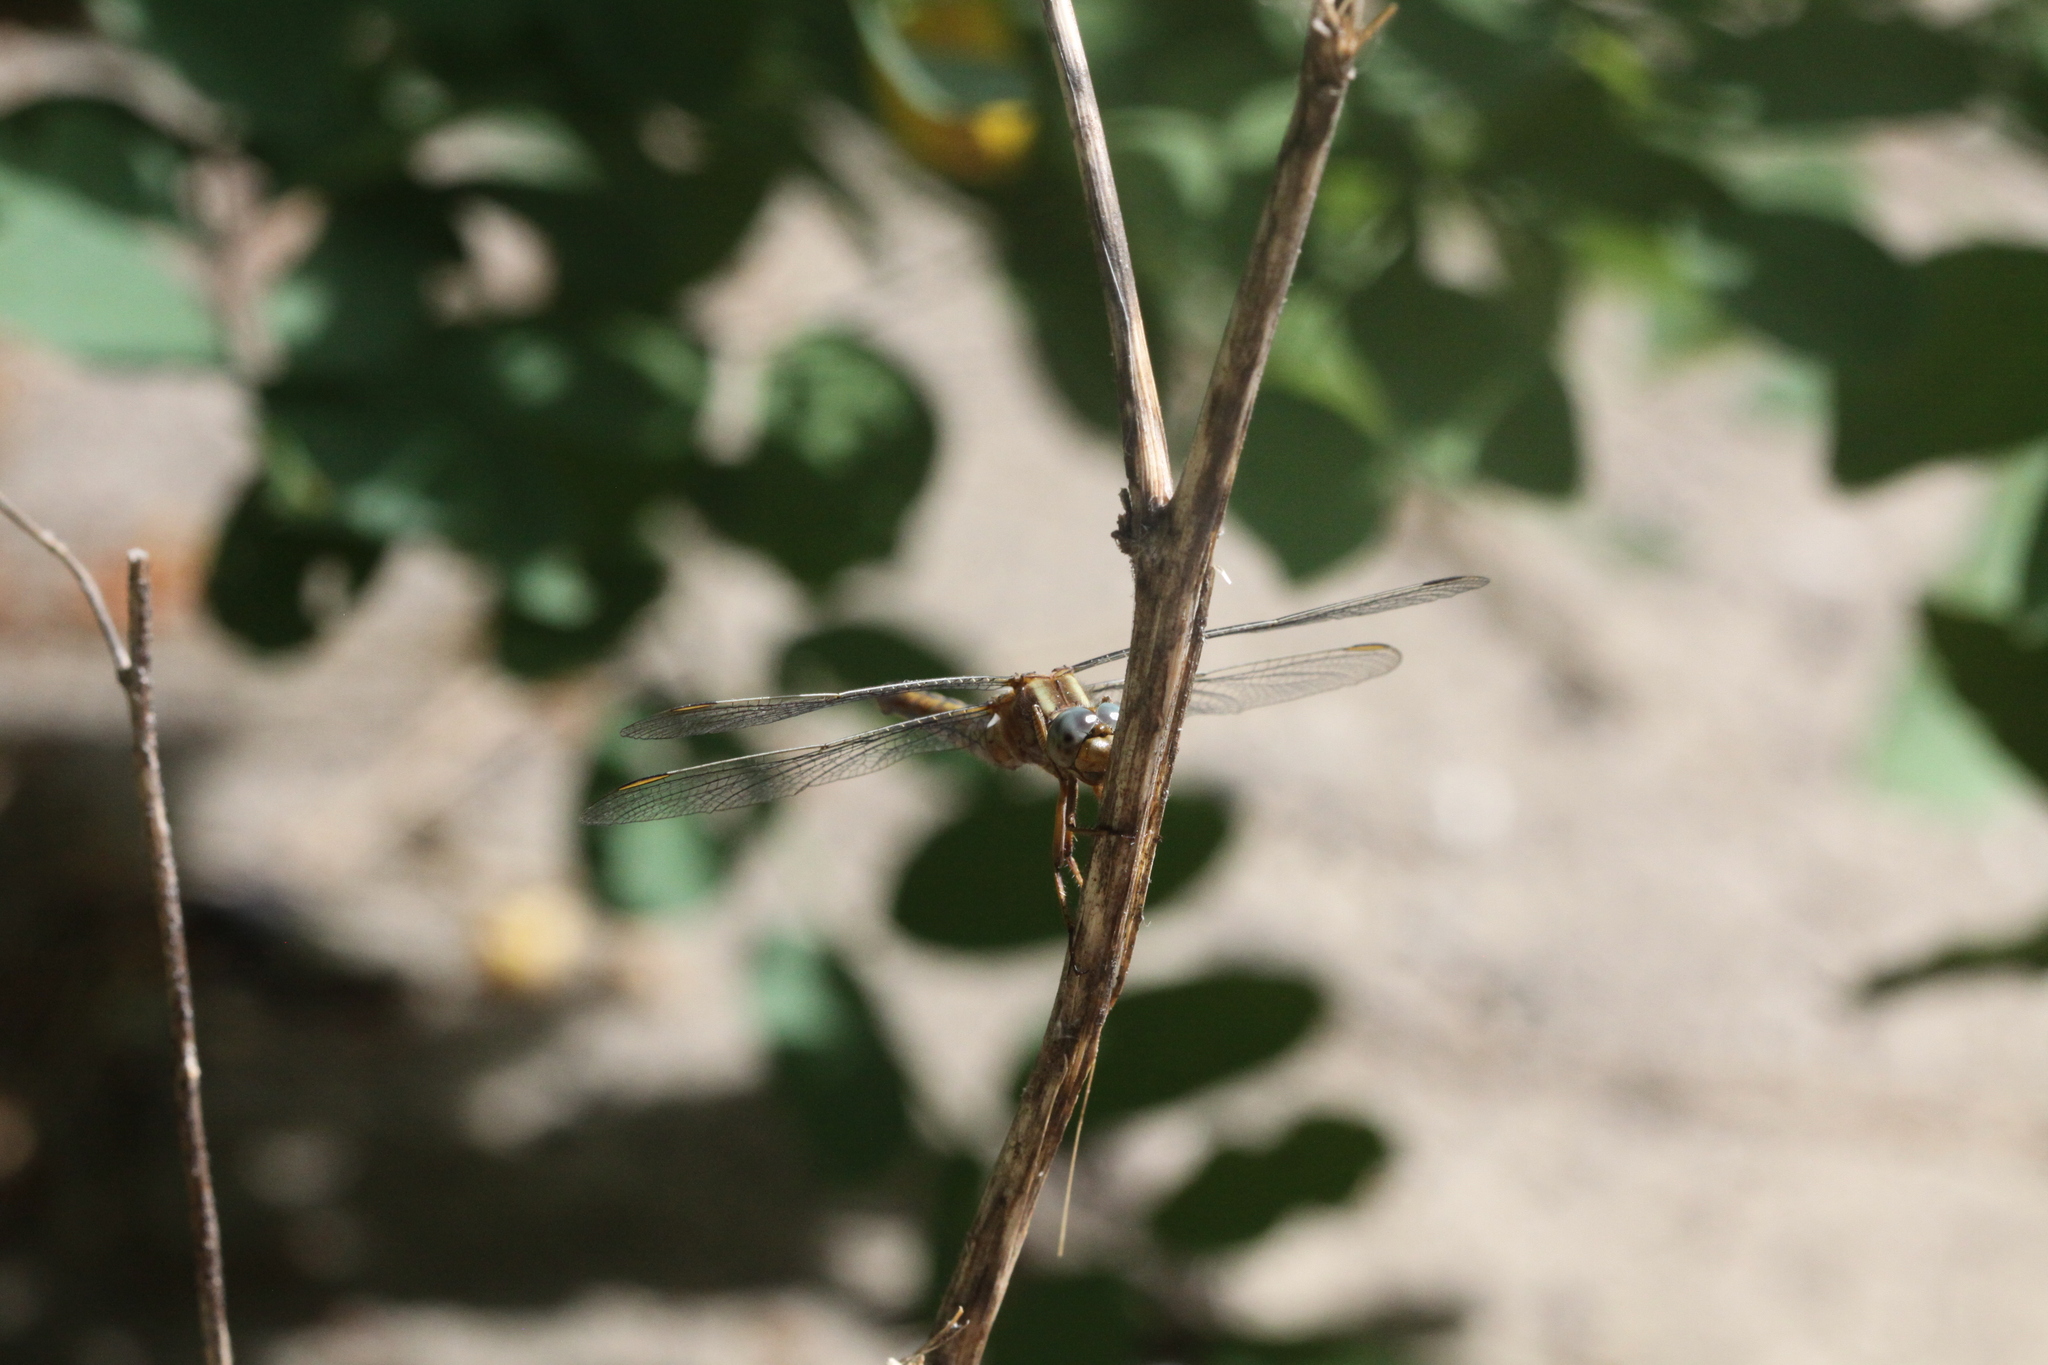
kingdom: Animalia
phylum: Arthropoda
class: Insecta
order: Odonata
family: Libellulidae
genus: Orthetrum
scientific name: Orthetrum coerulescens
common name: Keeled skimmer
